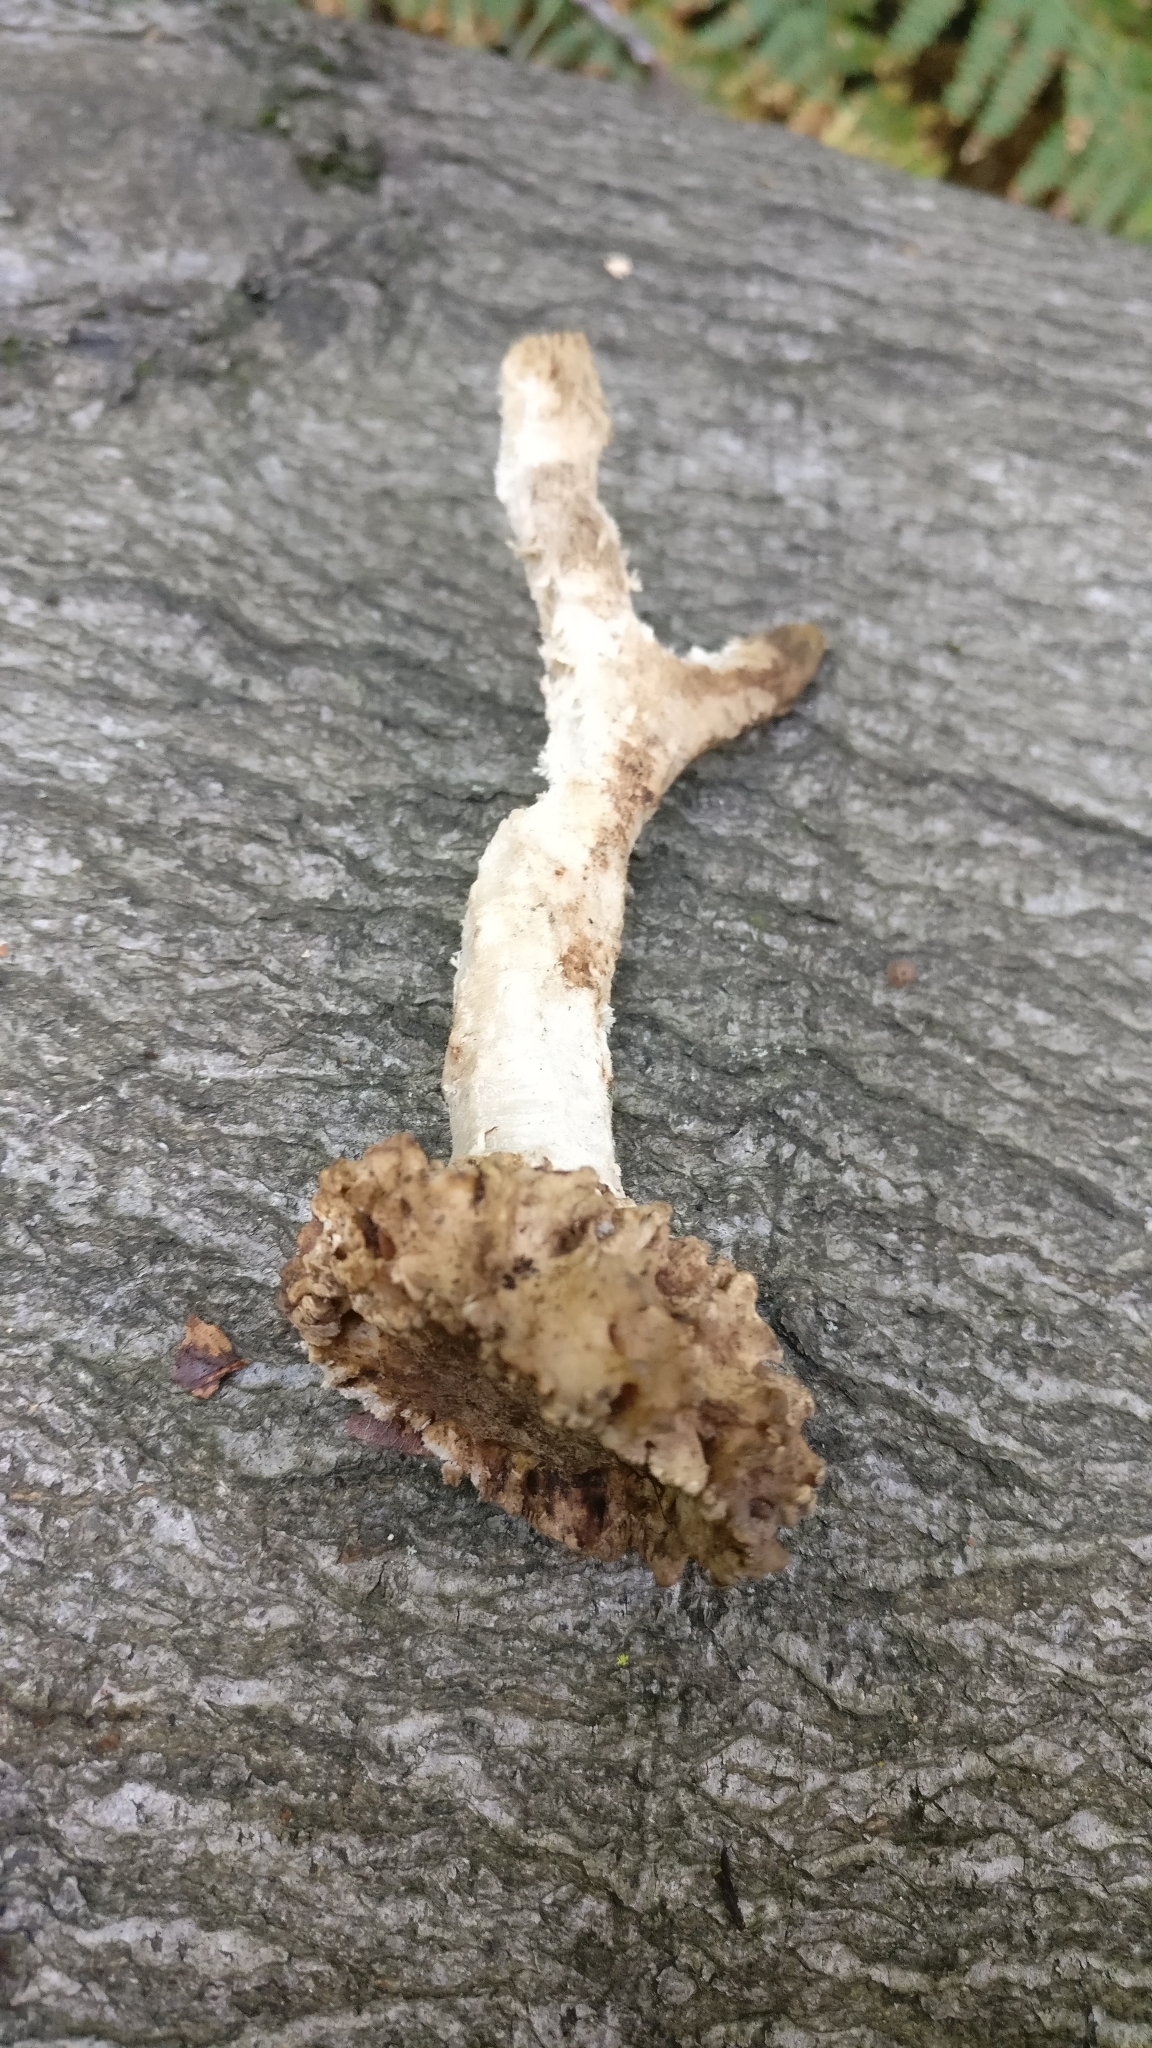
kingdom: Animalia
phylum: Chordata
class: Mammalia
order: Artiodactyla
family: Cervidae
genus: Capreolus
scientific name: Capreolus capreolus
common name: Western roe deer
